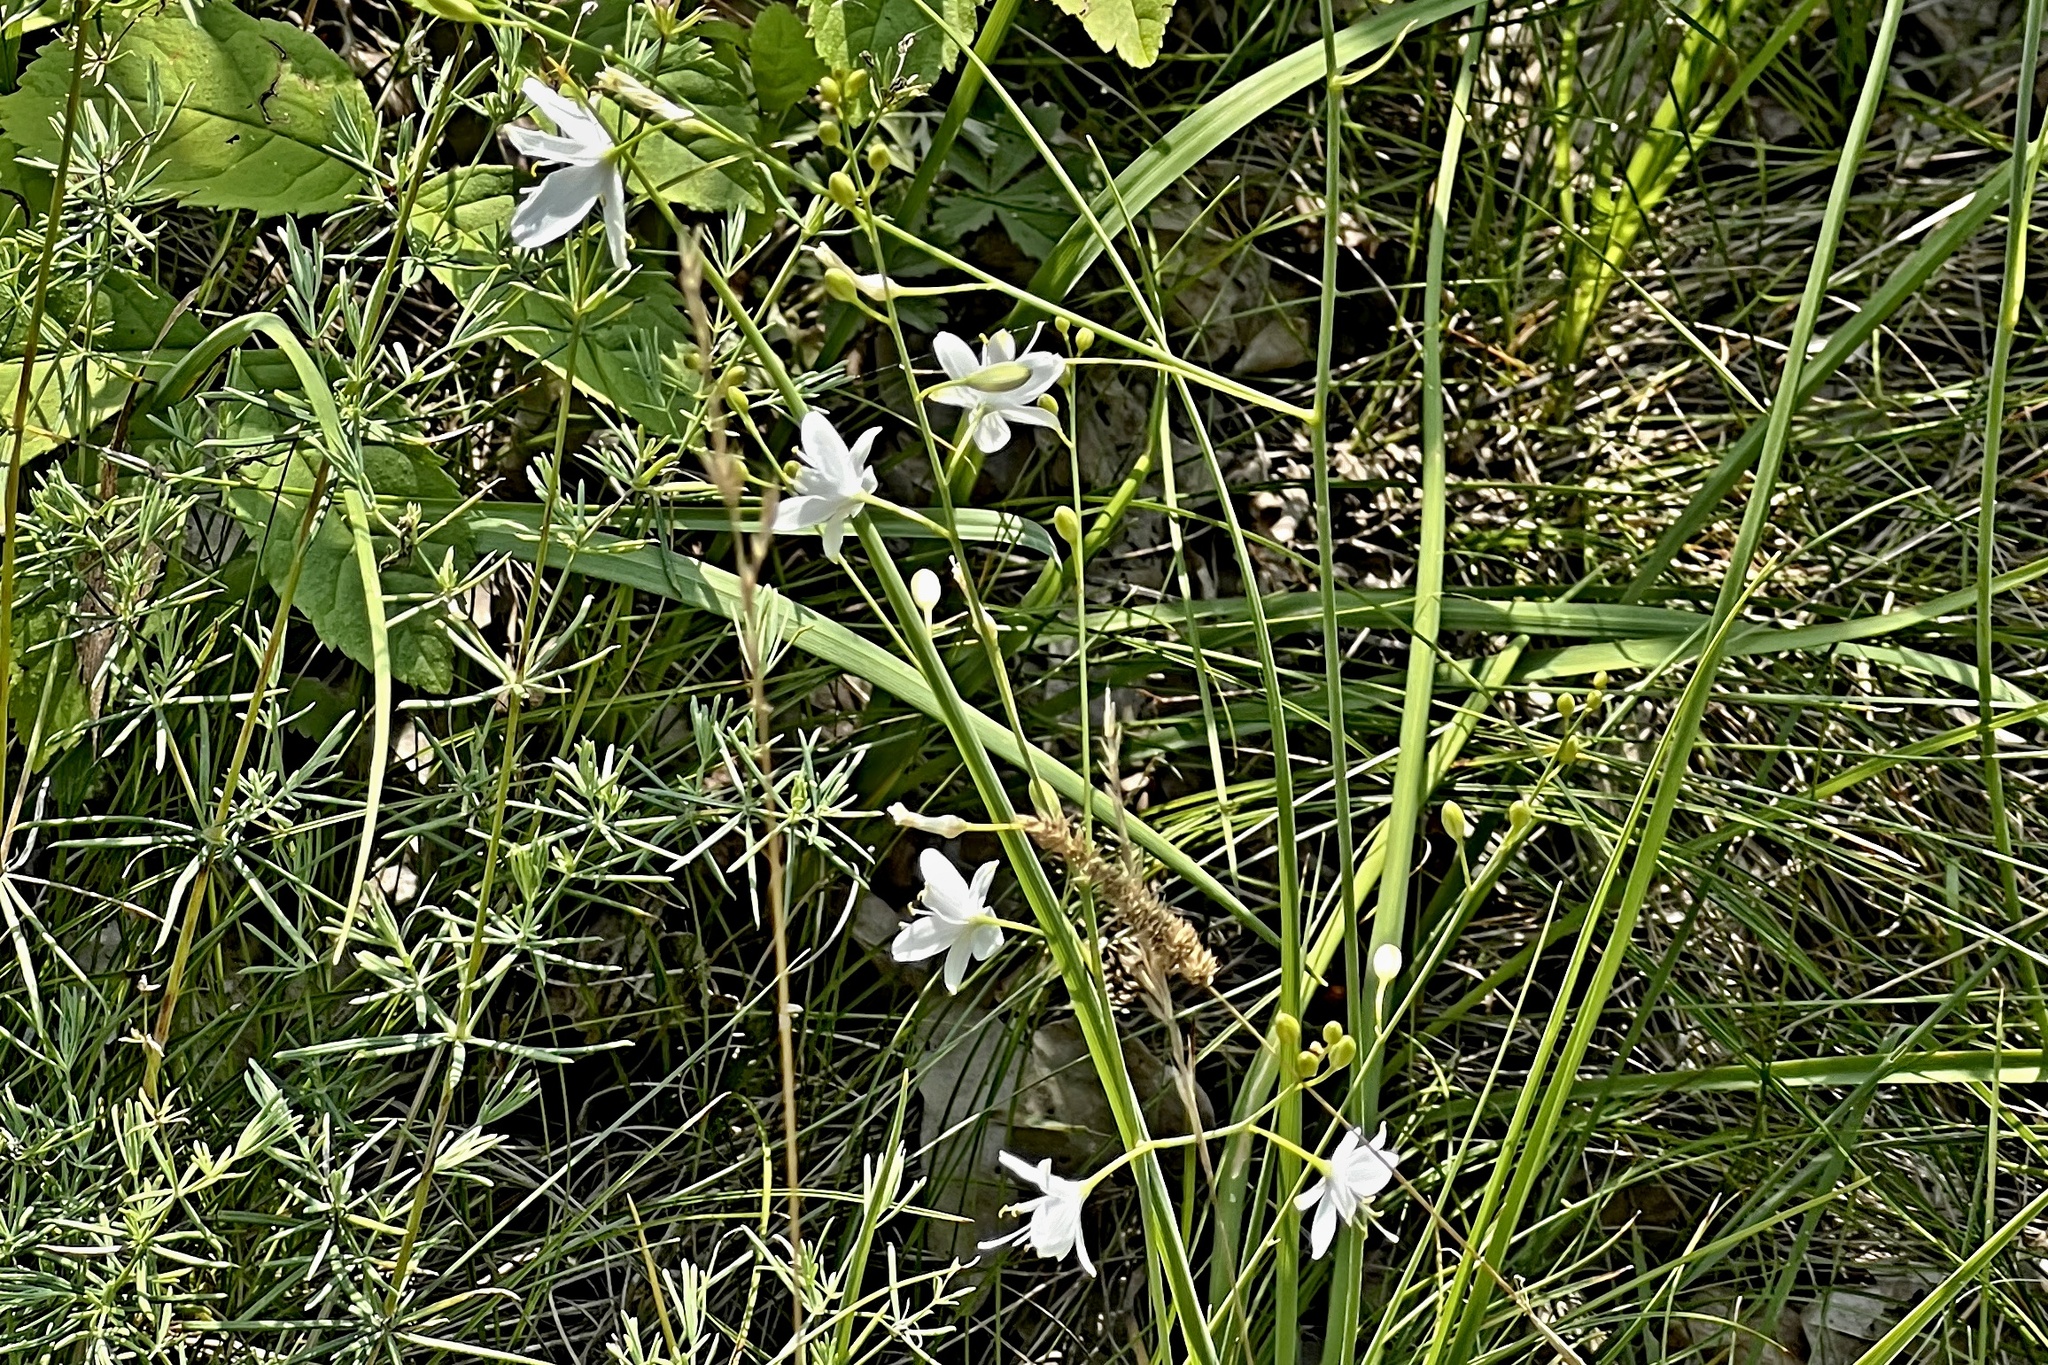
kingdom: Plantae
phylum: Tracheophyta
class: Liliopsida
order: Asparagales
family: Asparagaceae
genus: Anthericum
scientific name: Anthericum ramosum
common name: Branched st. bernard's-lily
